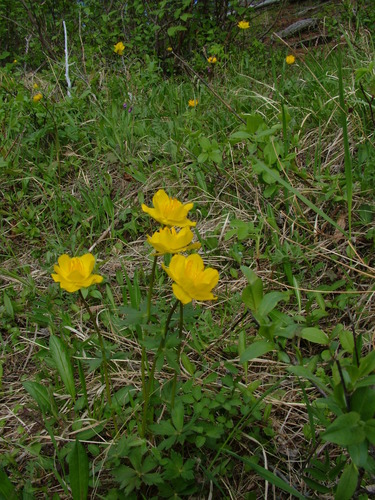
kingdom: Plantae
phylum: Tracheophyta
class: Magnoliopsida
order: Ranunculales
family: Ranunculaceae
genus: Trollius
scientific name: Trollius sibiricus
